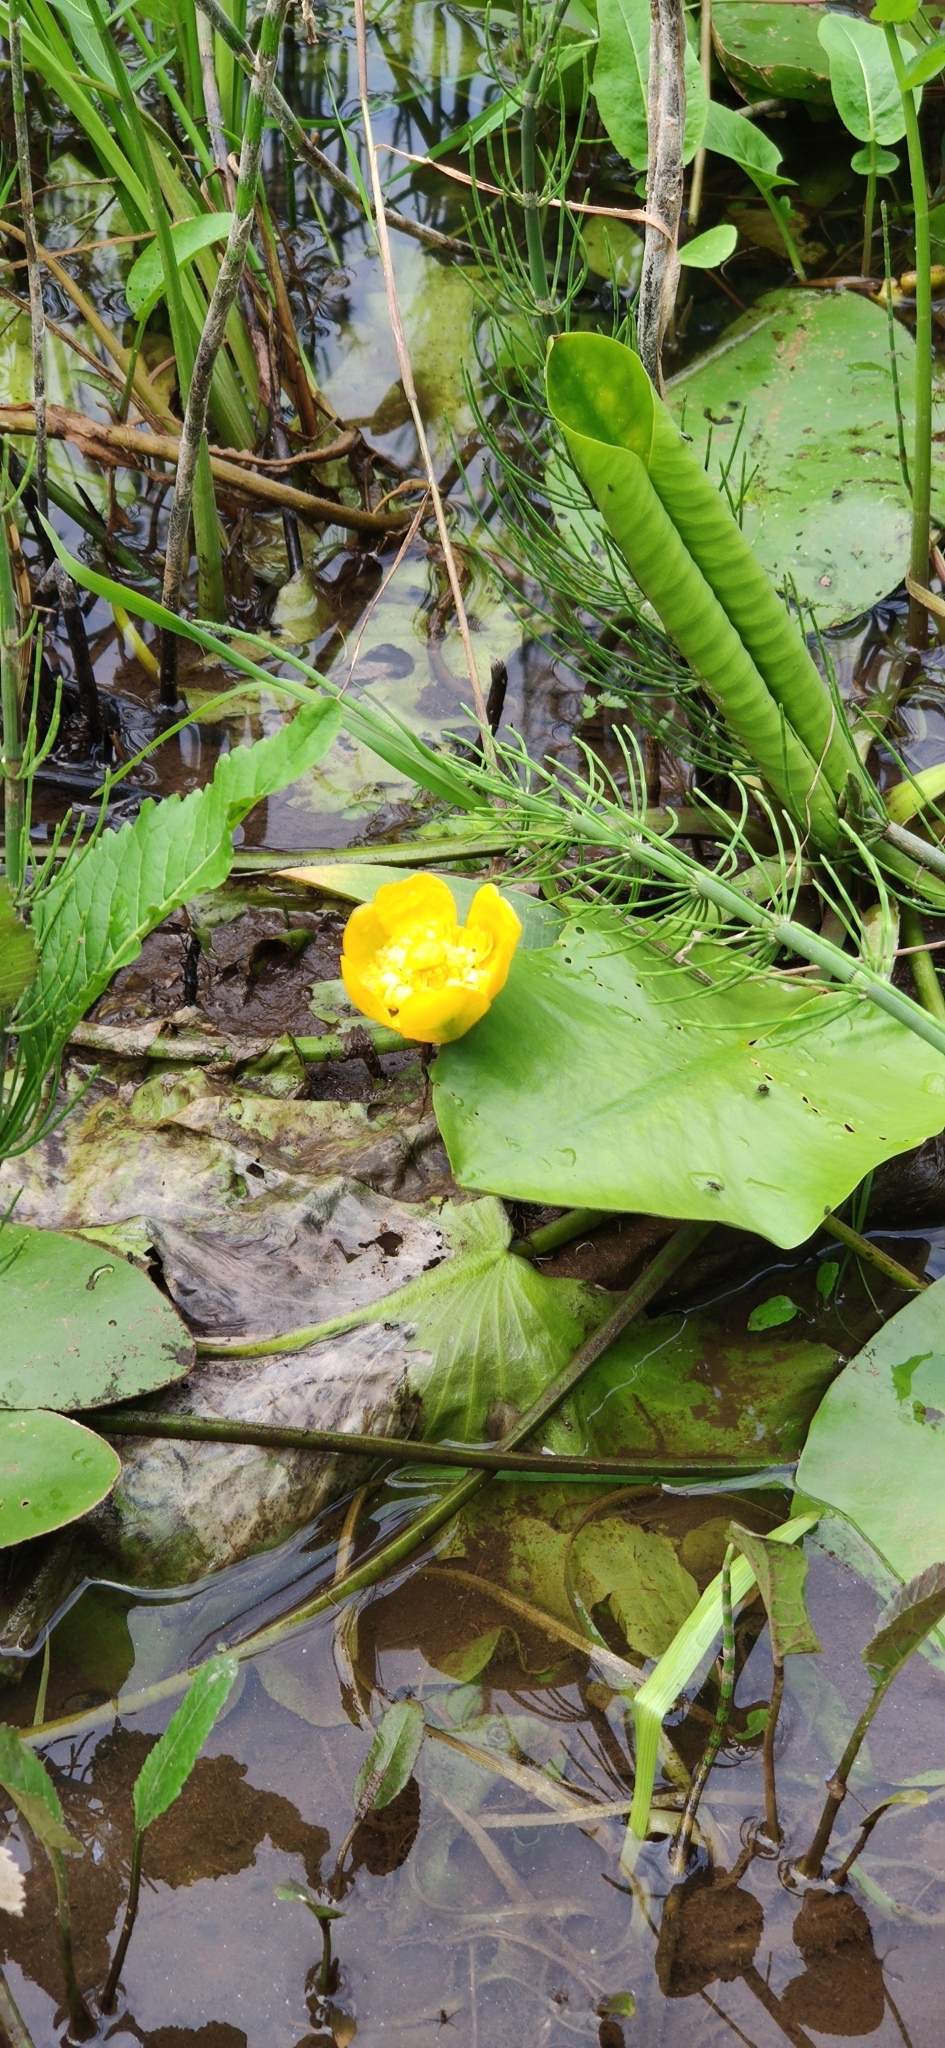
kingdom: Plantae
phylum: Tracheophyta
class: Magnoliopsida
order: Nymphaeales
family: Nymphaeaceae
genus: Nuphar
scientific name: Nuphar lutea
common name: Yellow water-lily
